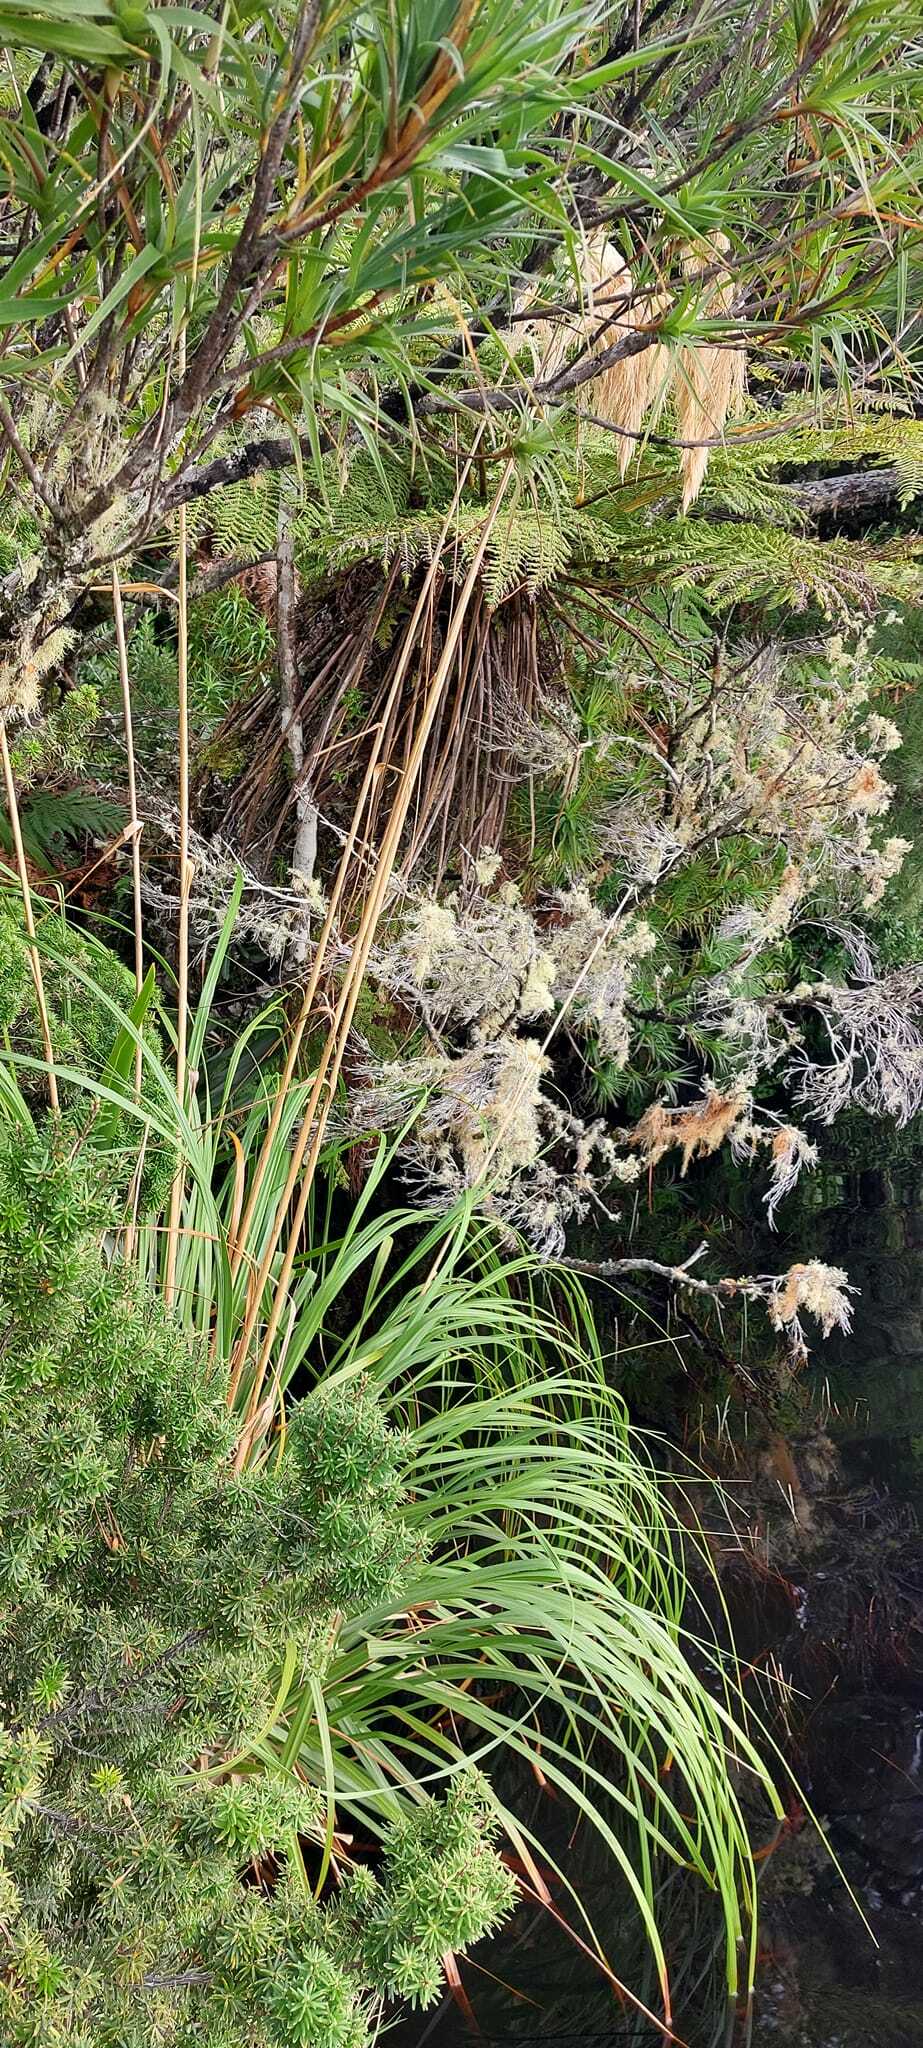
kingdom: Plantae
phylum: Tracheophyta
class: Liliopsida
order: Poales
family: Poaceae
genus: Austroderia
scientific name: Austroderia turbaria
